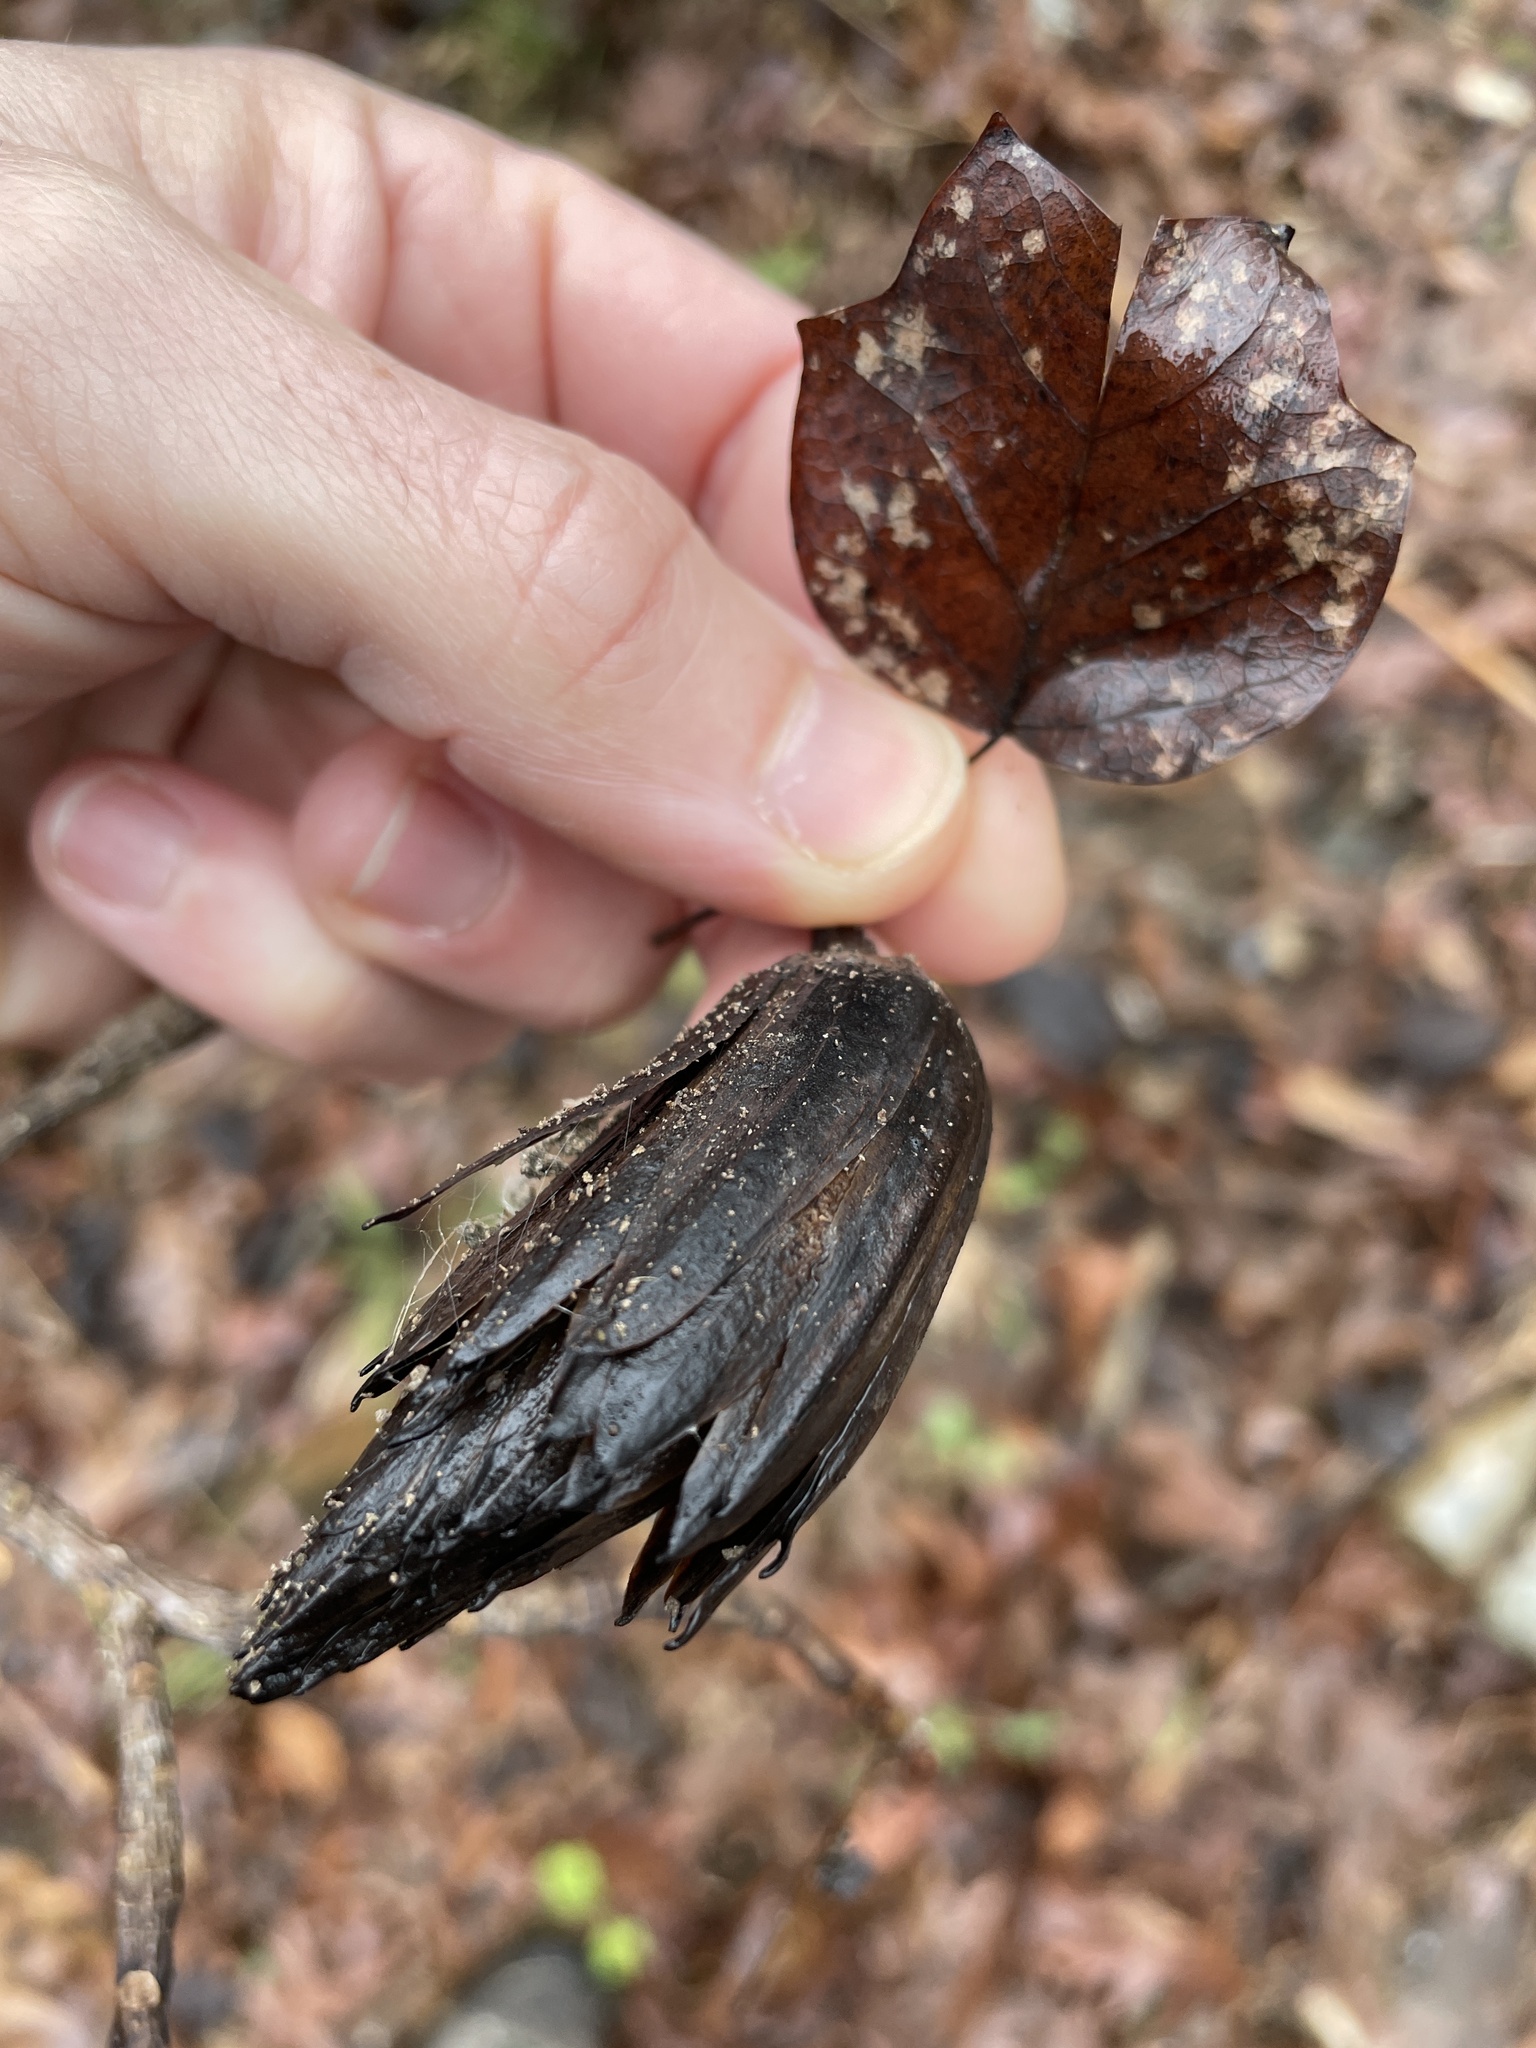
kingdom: Plantae
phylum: Tracheophyta
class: Magnoliopsida
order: Magnoliales
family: Magnoliaceae
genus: Liriodendron
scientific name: Liriodendron tulipifera
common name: Tulip tree
